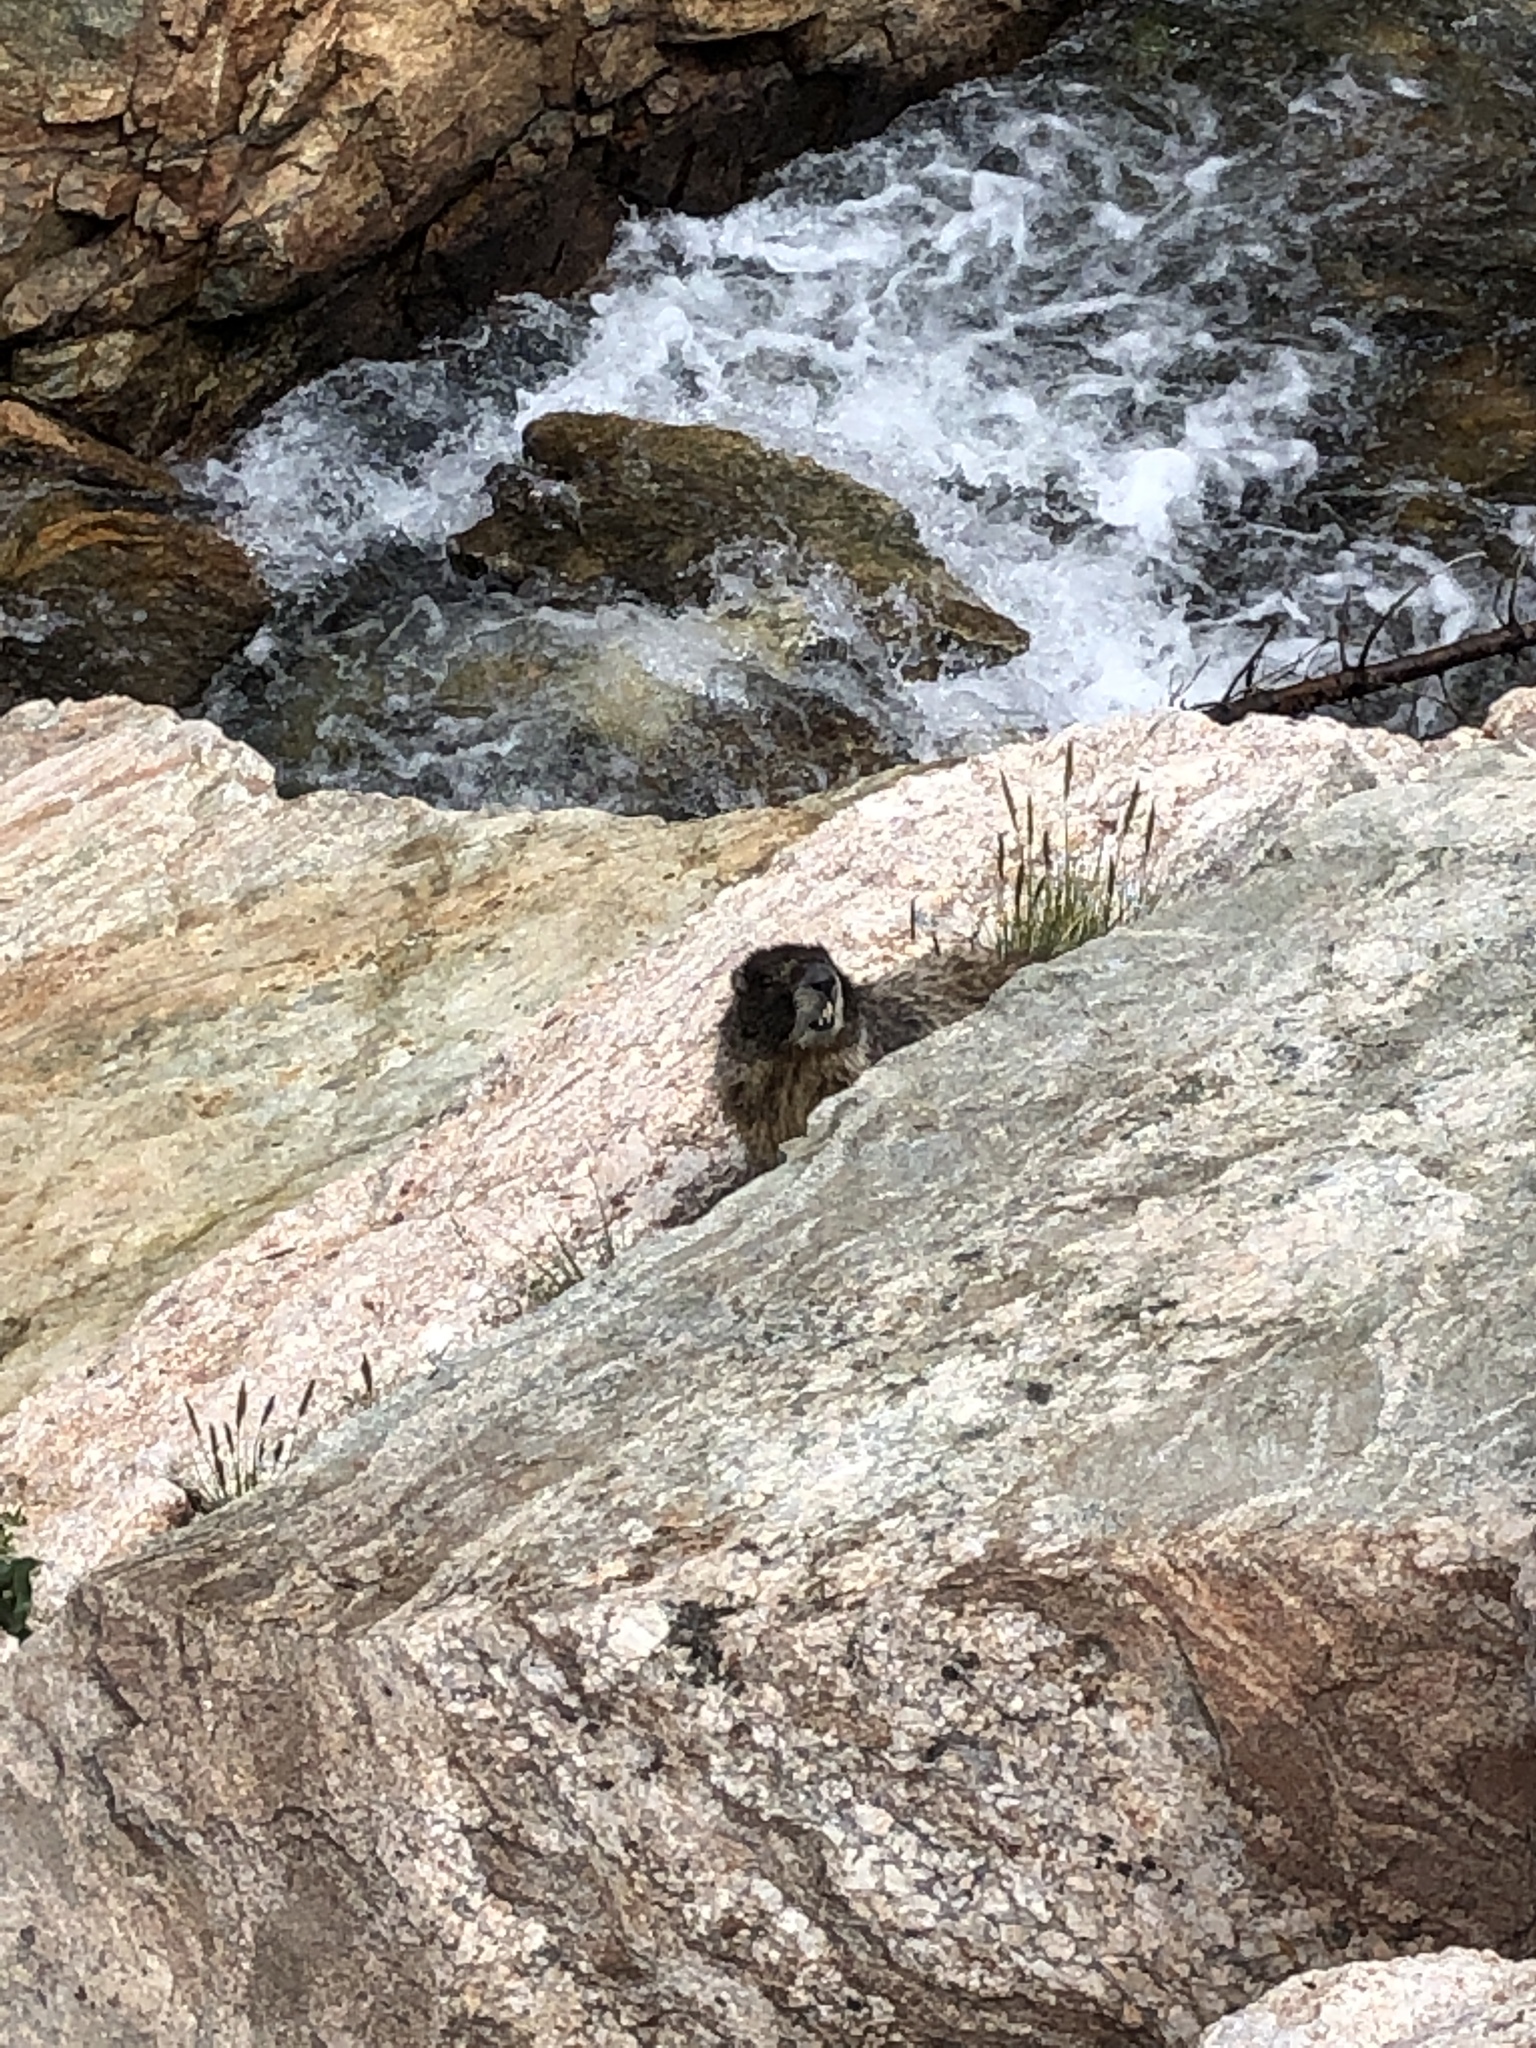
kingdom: Animalia
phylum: Chordata
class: Mammalia
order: Rodentia
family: Sciuridae
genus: Marmota
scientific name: Marmota flaviventris
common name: Yellow-bellied marmot
